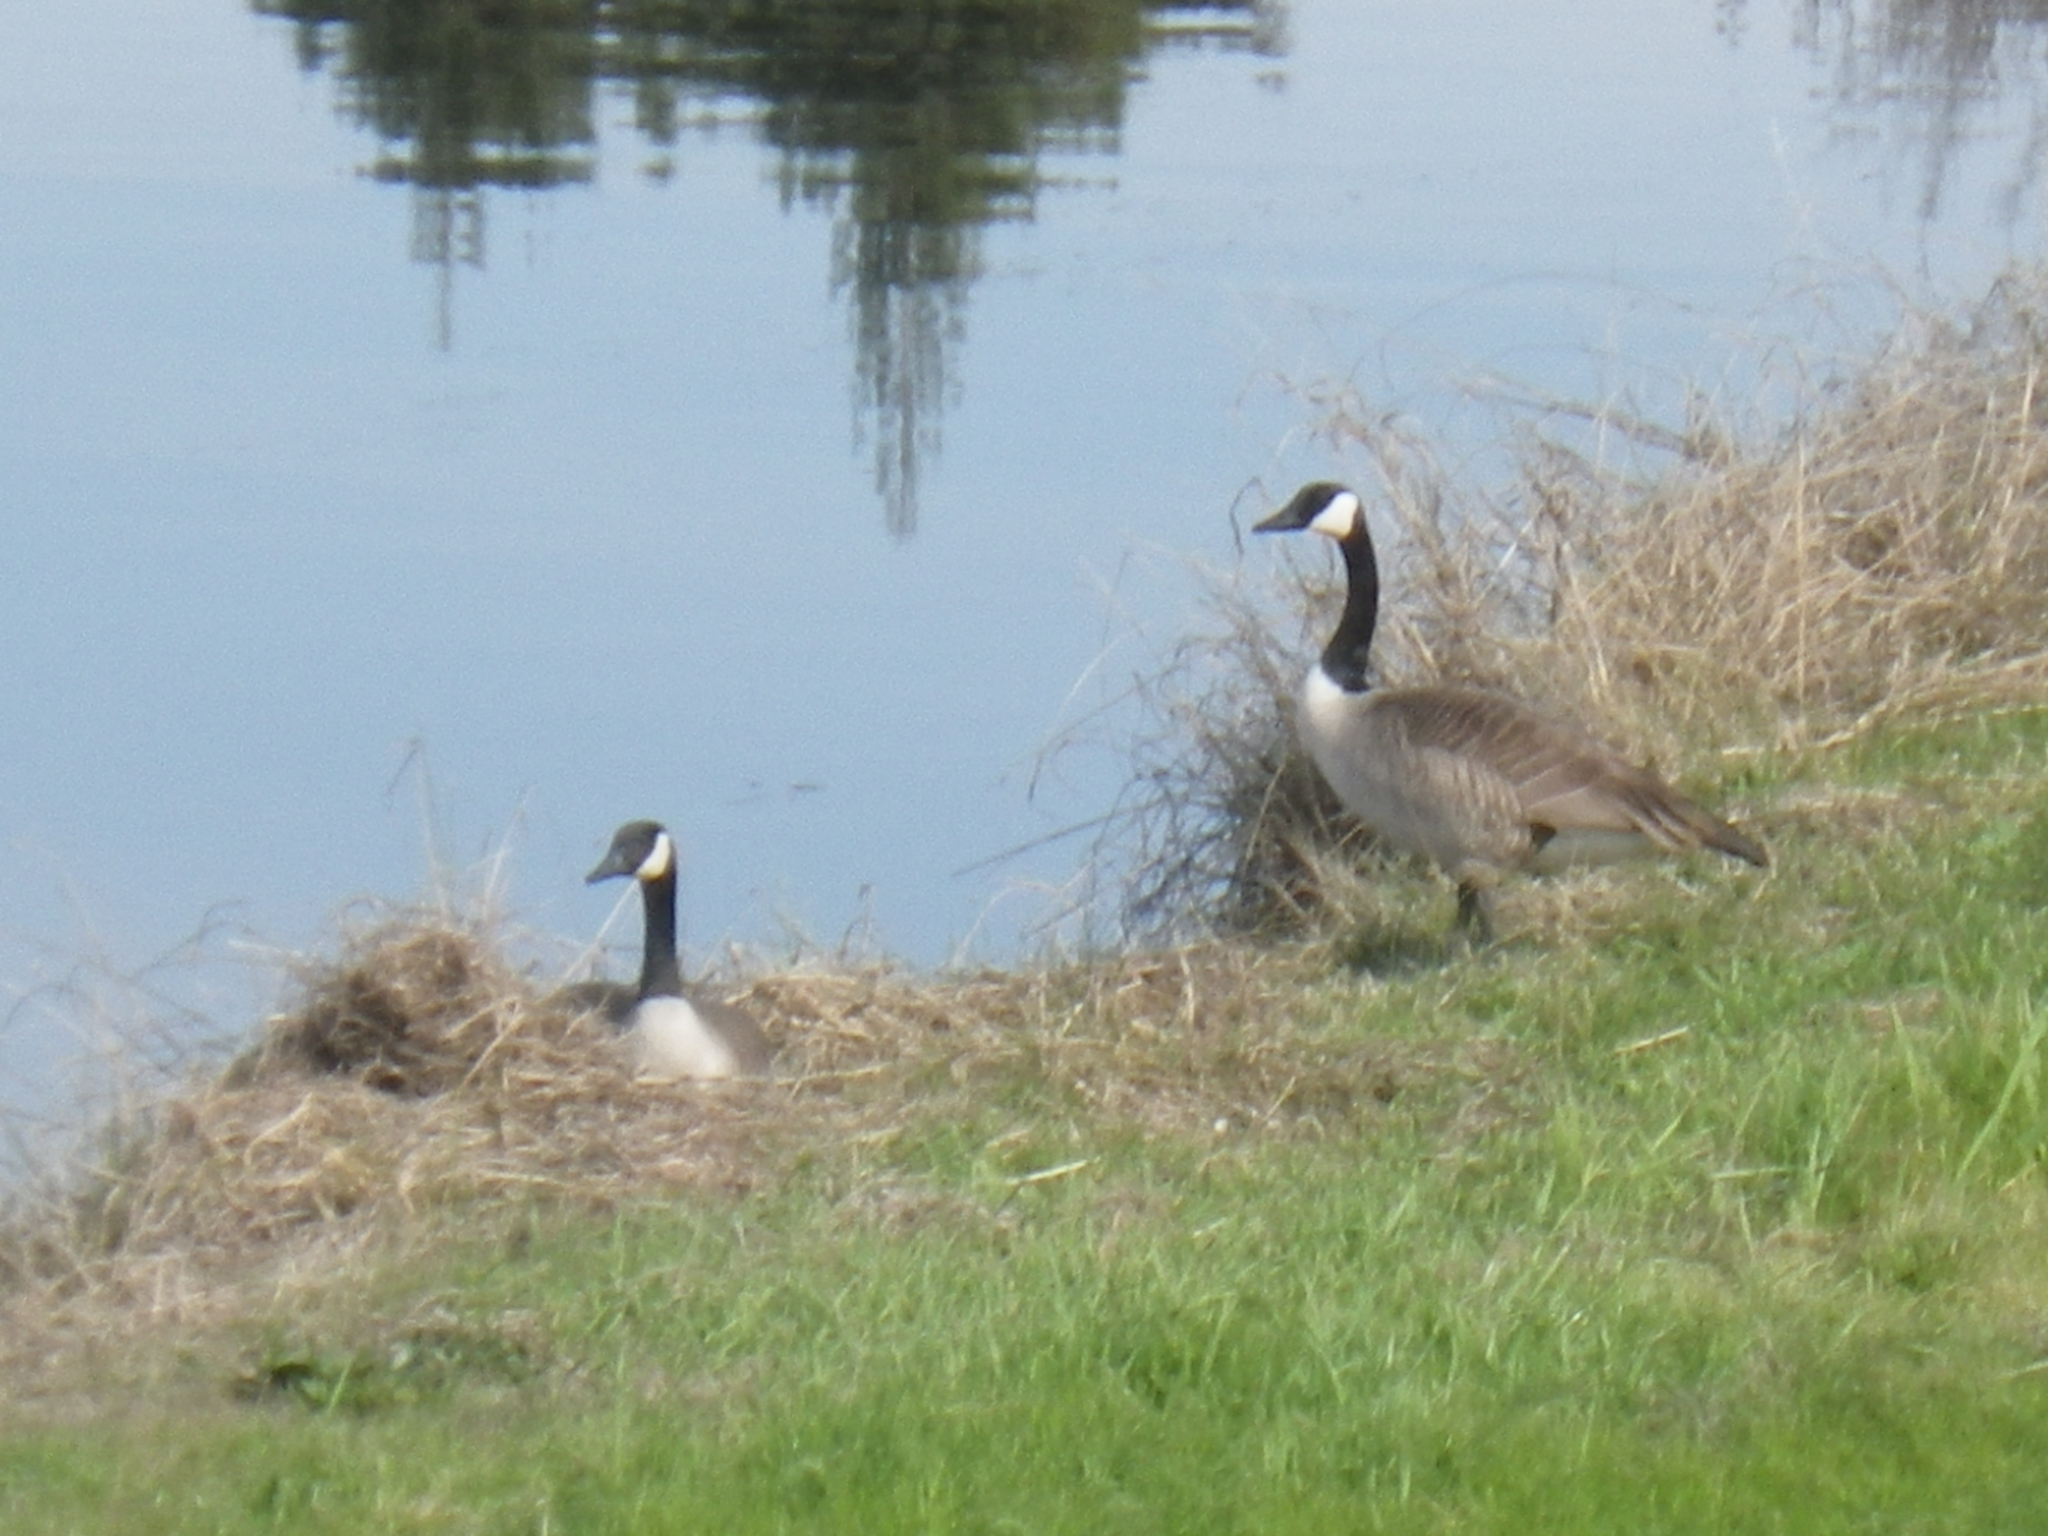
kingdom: Animalia
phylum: Chordata
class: Aves
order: Anseriformes
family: Anatidae
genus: Branta
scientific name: Branta canadensis
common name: Canada goose
